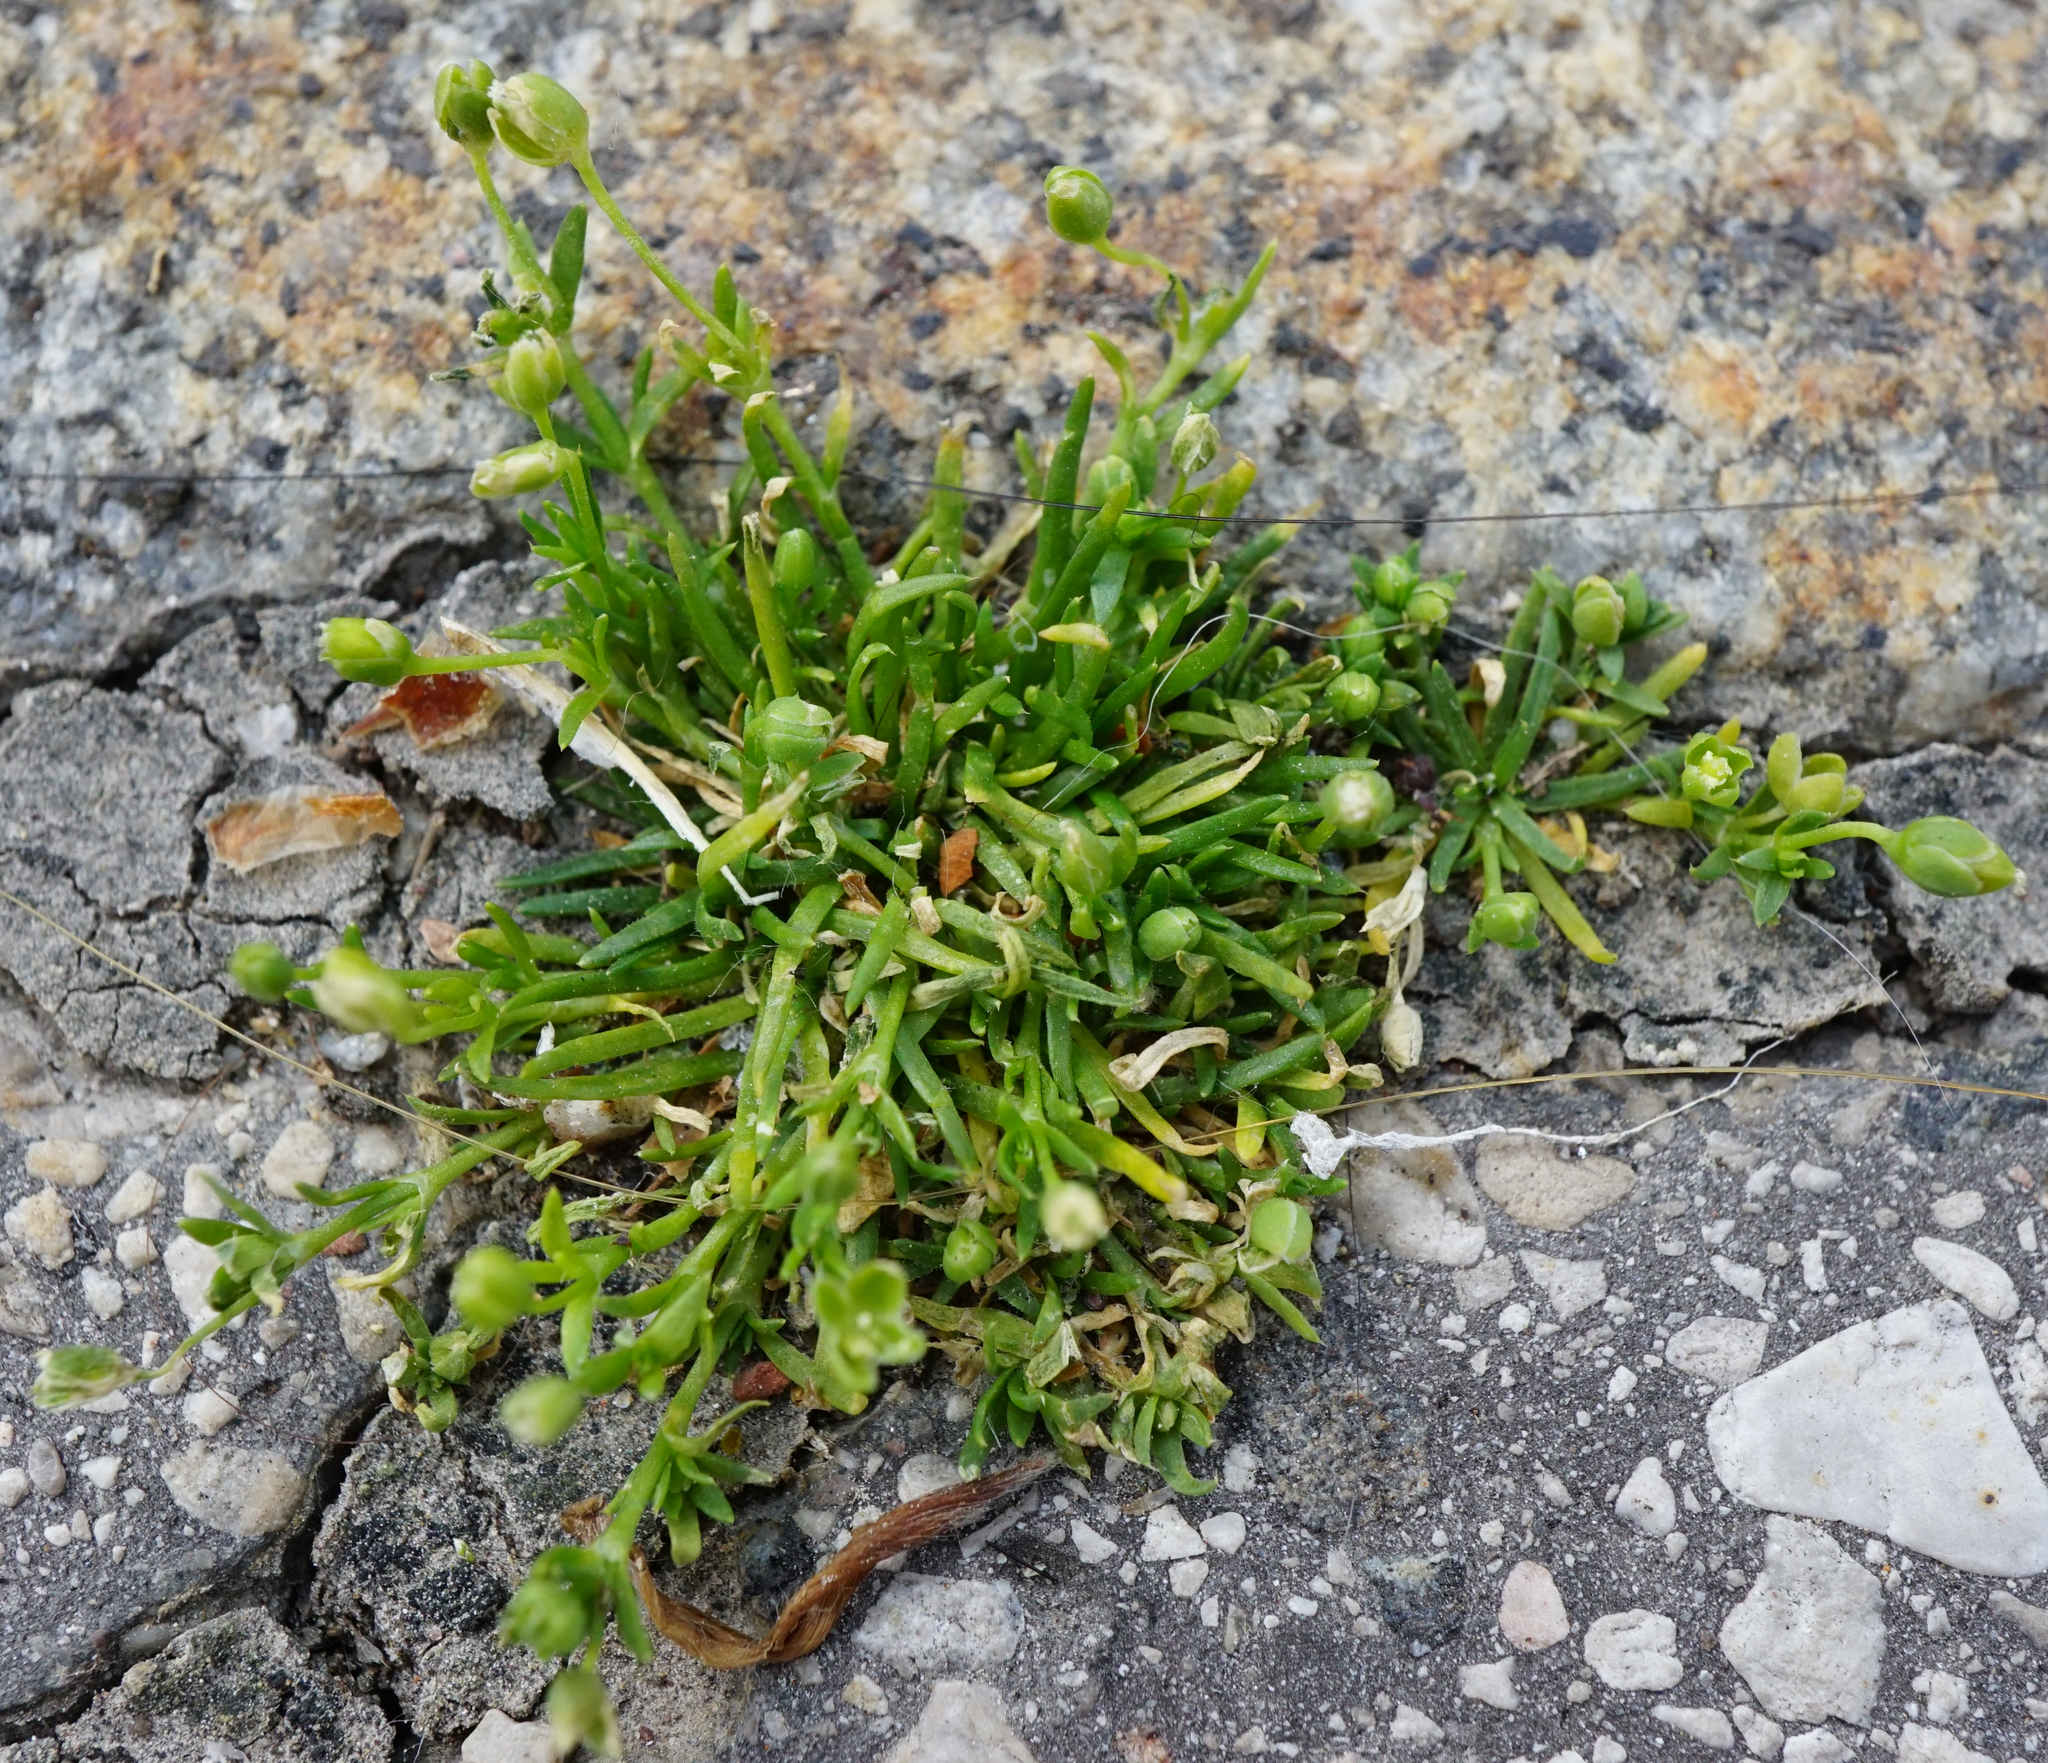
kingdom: Plantae
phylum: Tracheophyta
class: Magnoliopsida
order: Caryophyllales
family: Caryophyllaceae
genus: Sagina
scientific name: Sagina procumbens
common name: Procumbent pearlwort
